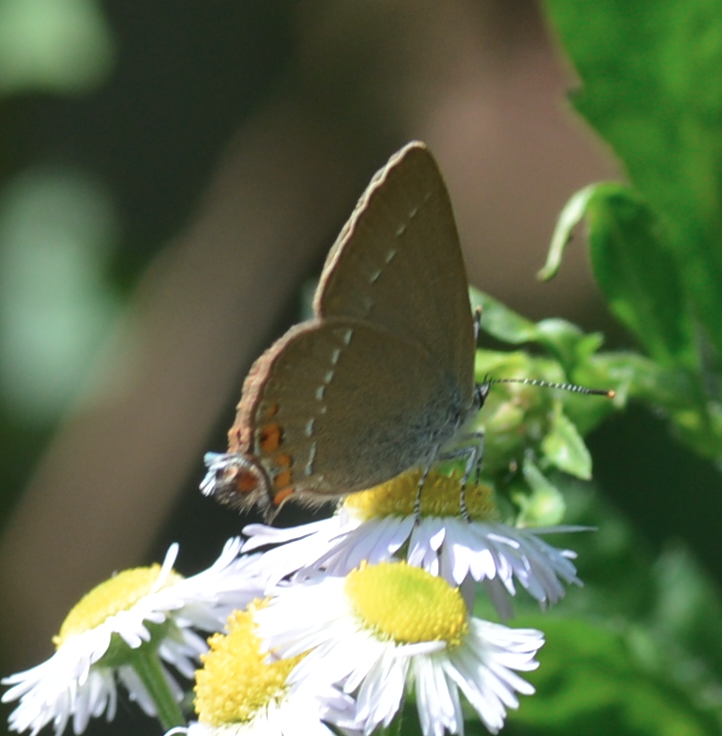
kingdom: Animalia
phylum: Arthropoda
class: Insecta
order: Lepidoptera
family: Lycaenidae
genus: Strymon
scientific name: Strymon acaciae
